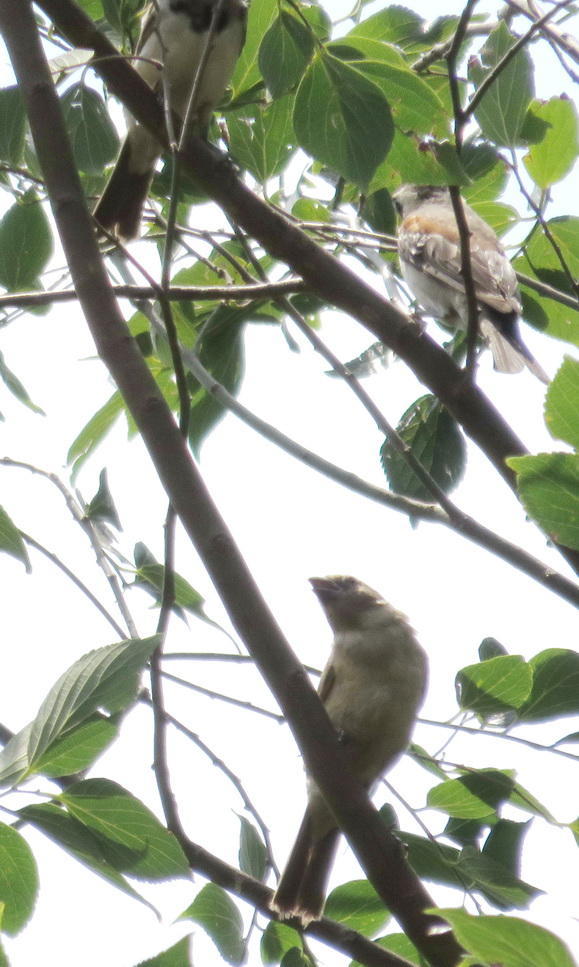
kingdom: Animalia
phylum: Chordata
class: Aves
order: Passeriformes
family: Passeridae
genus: Passer
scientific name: Passer melanurus
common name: Cape sparrow
